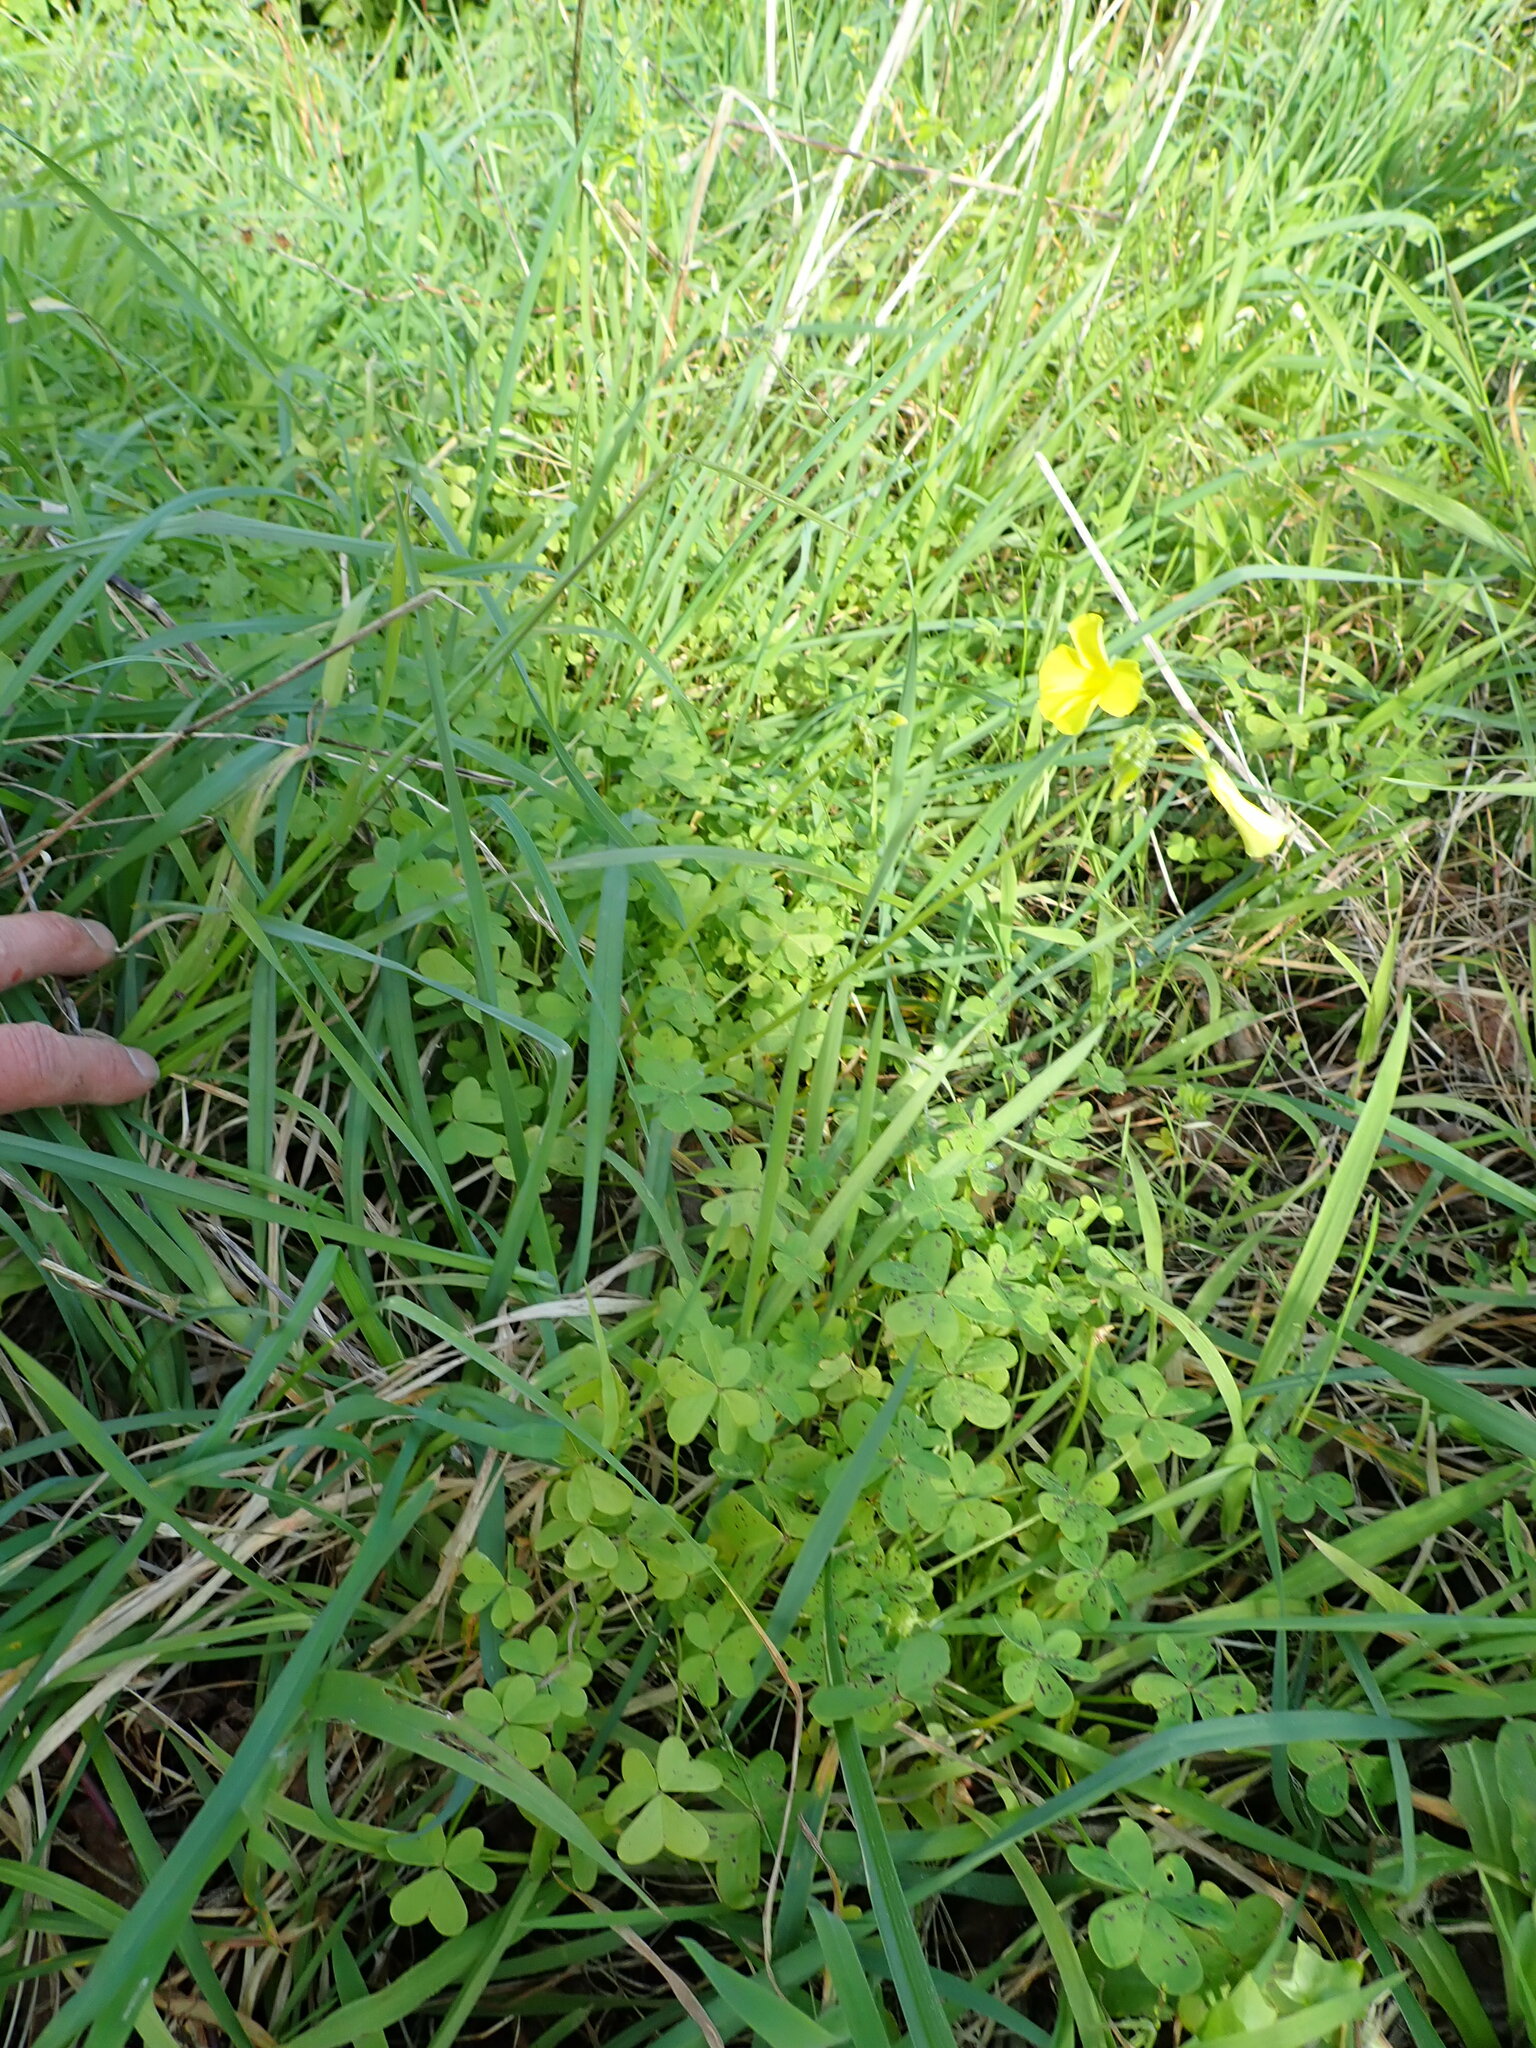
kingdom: Plantae
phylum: Tracheophyta
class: Magnoliopsida
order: Oxalidales
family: Oxalidaceae
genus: Oxalis
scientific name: Oxalis pes-caprae
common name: Bermuda-buttercup
